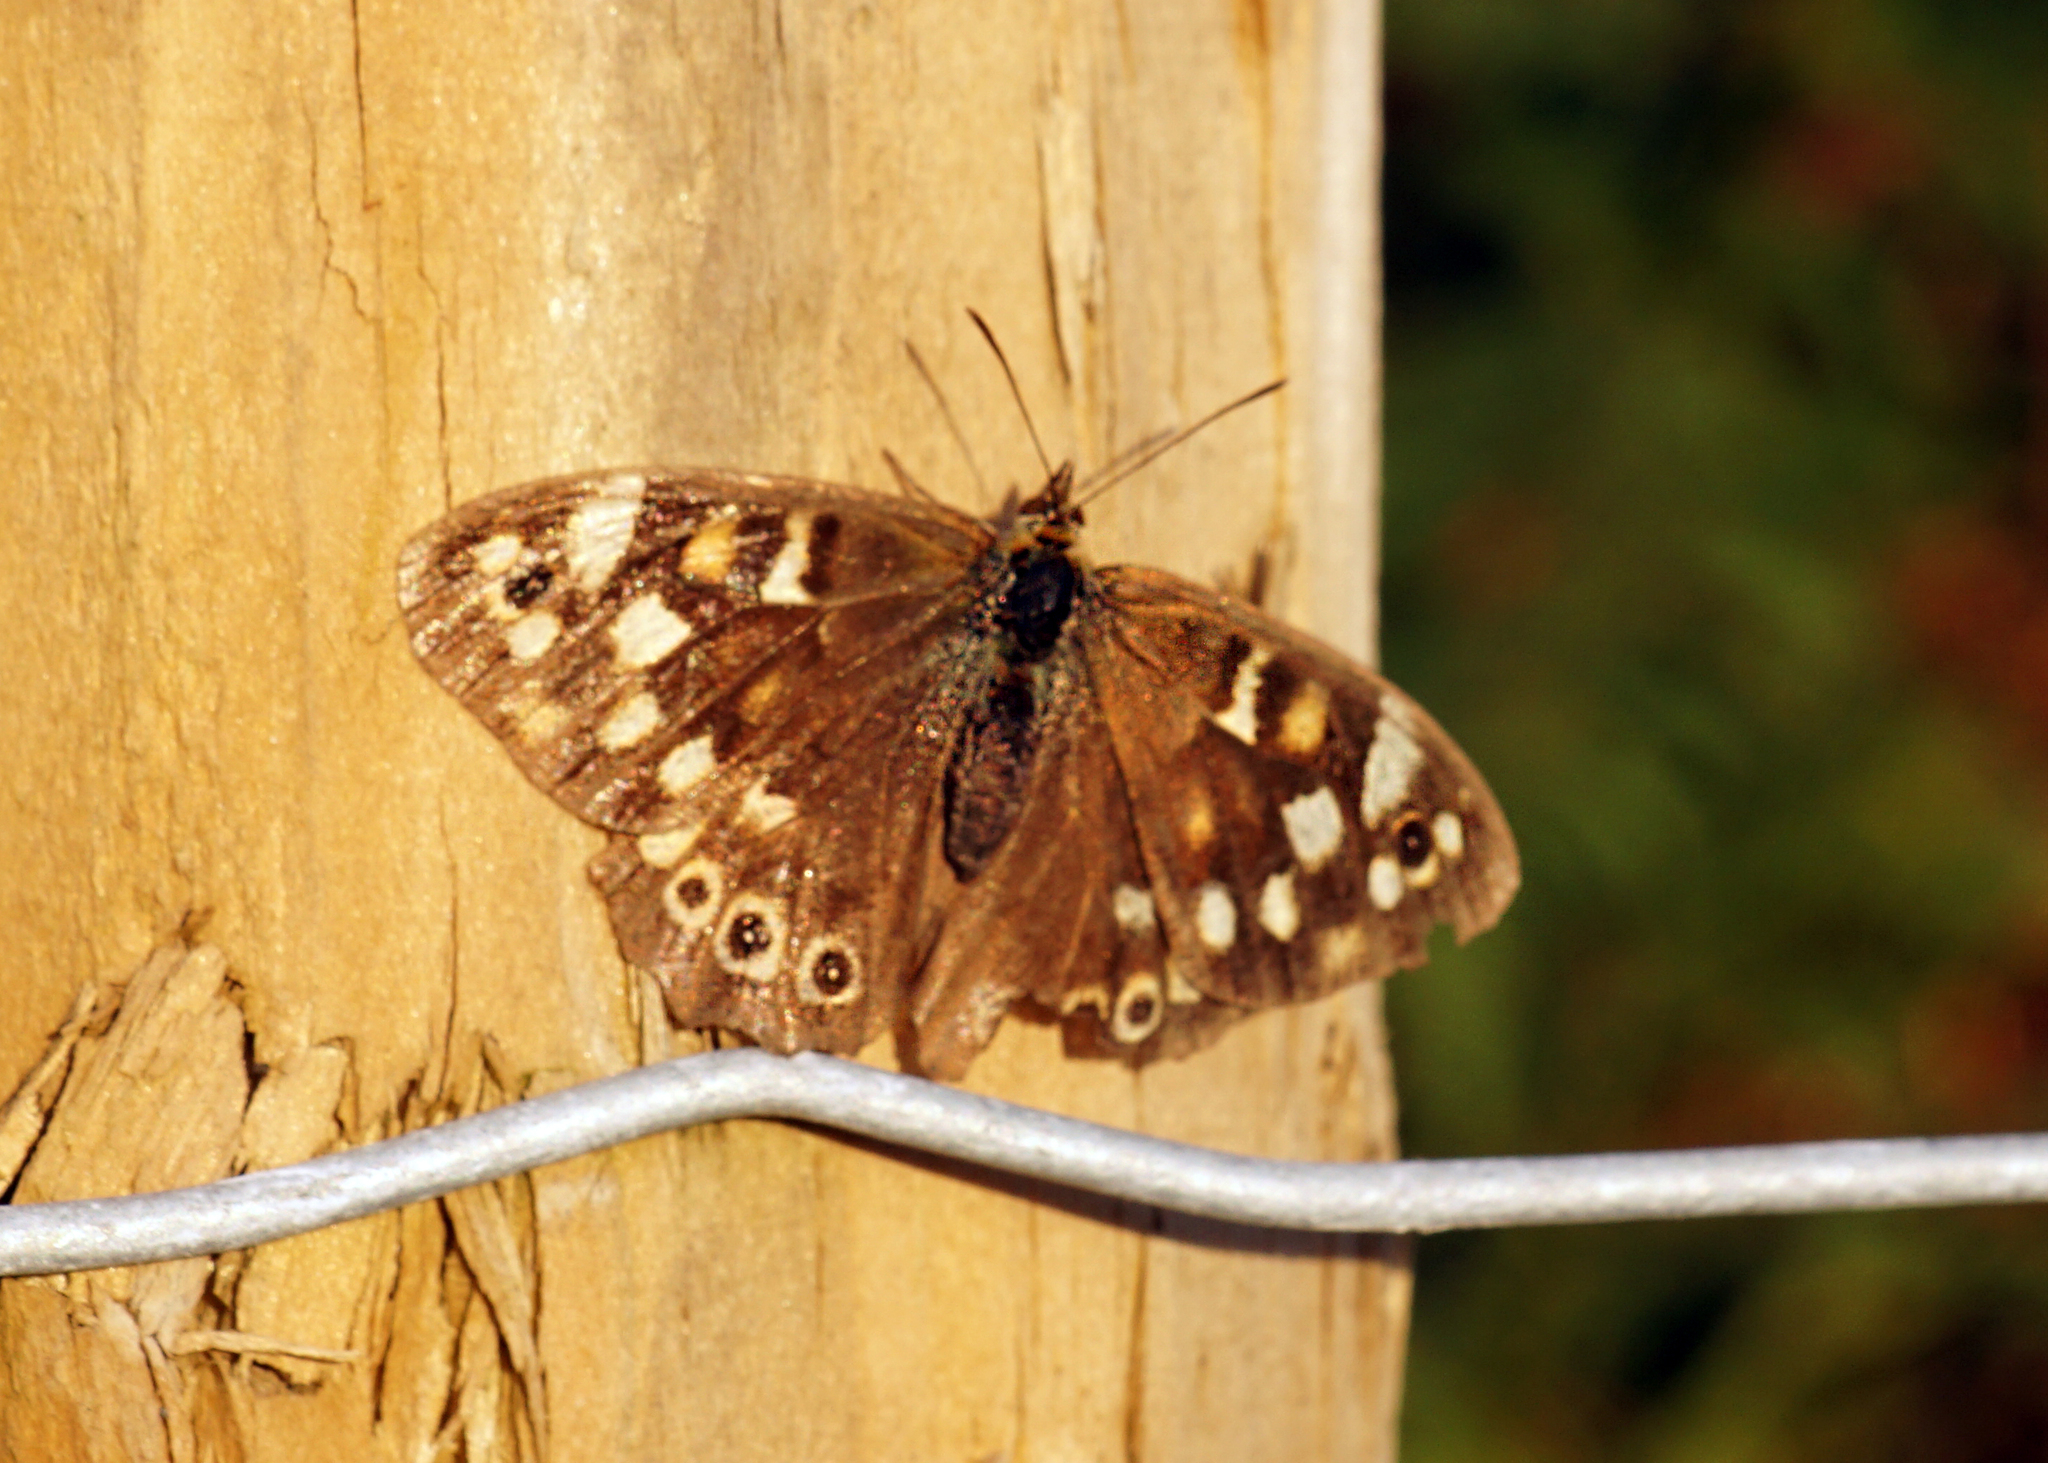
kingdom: Animalia
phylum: Arthropoda
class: Insecta
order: Lepidoptera
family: Nymphalidae
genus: Pararge
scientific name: Pararge aegeria
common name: Speckled wood
